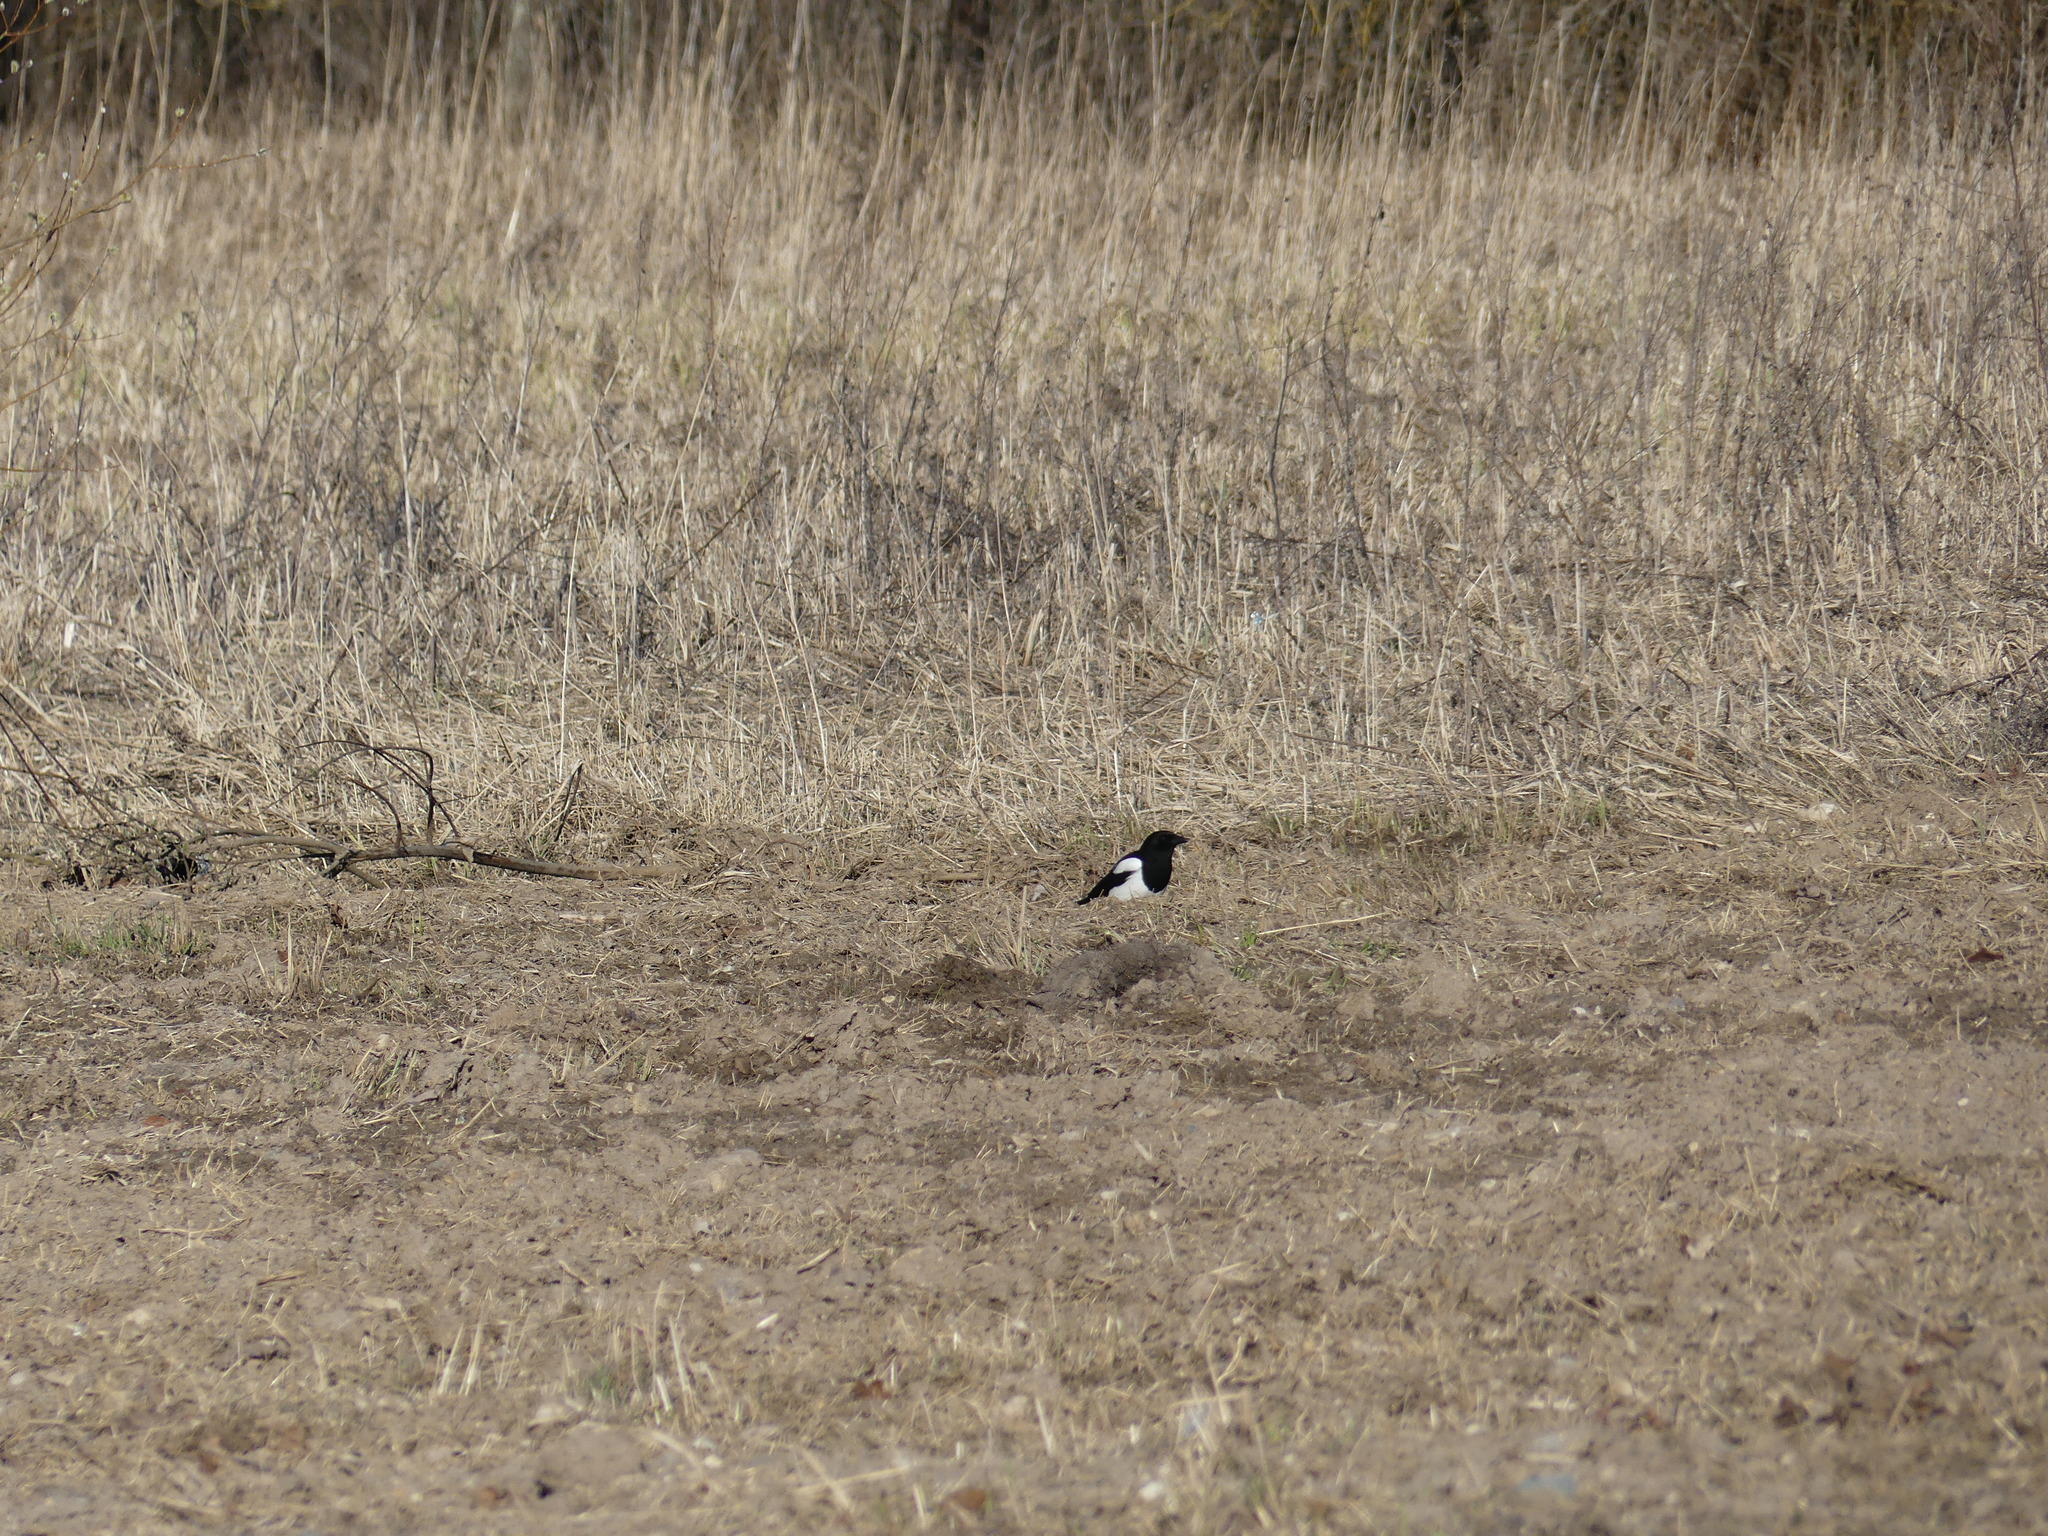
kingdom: Animalia
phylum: Chordata
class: Aves
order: Passeriformes
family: Corvidae
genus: Pica
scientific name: Pica pica
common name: Eurasian magpie
